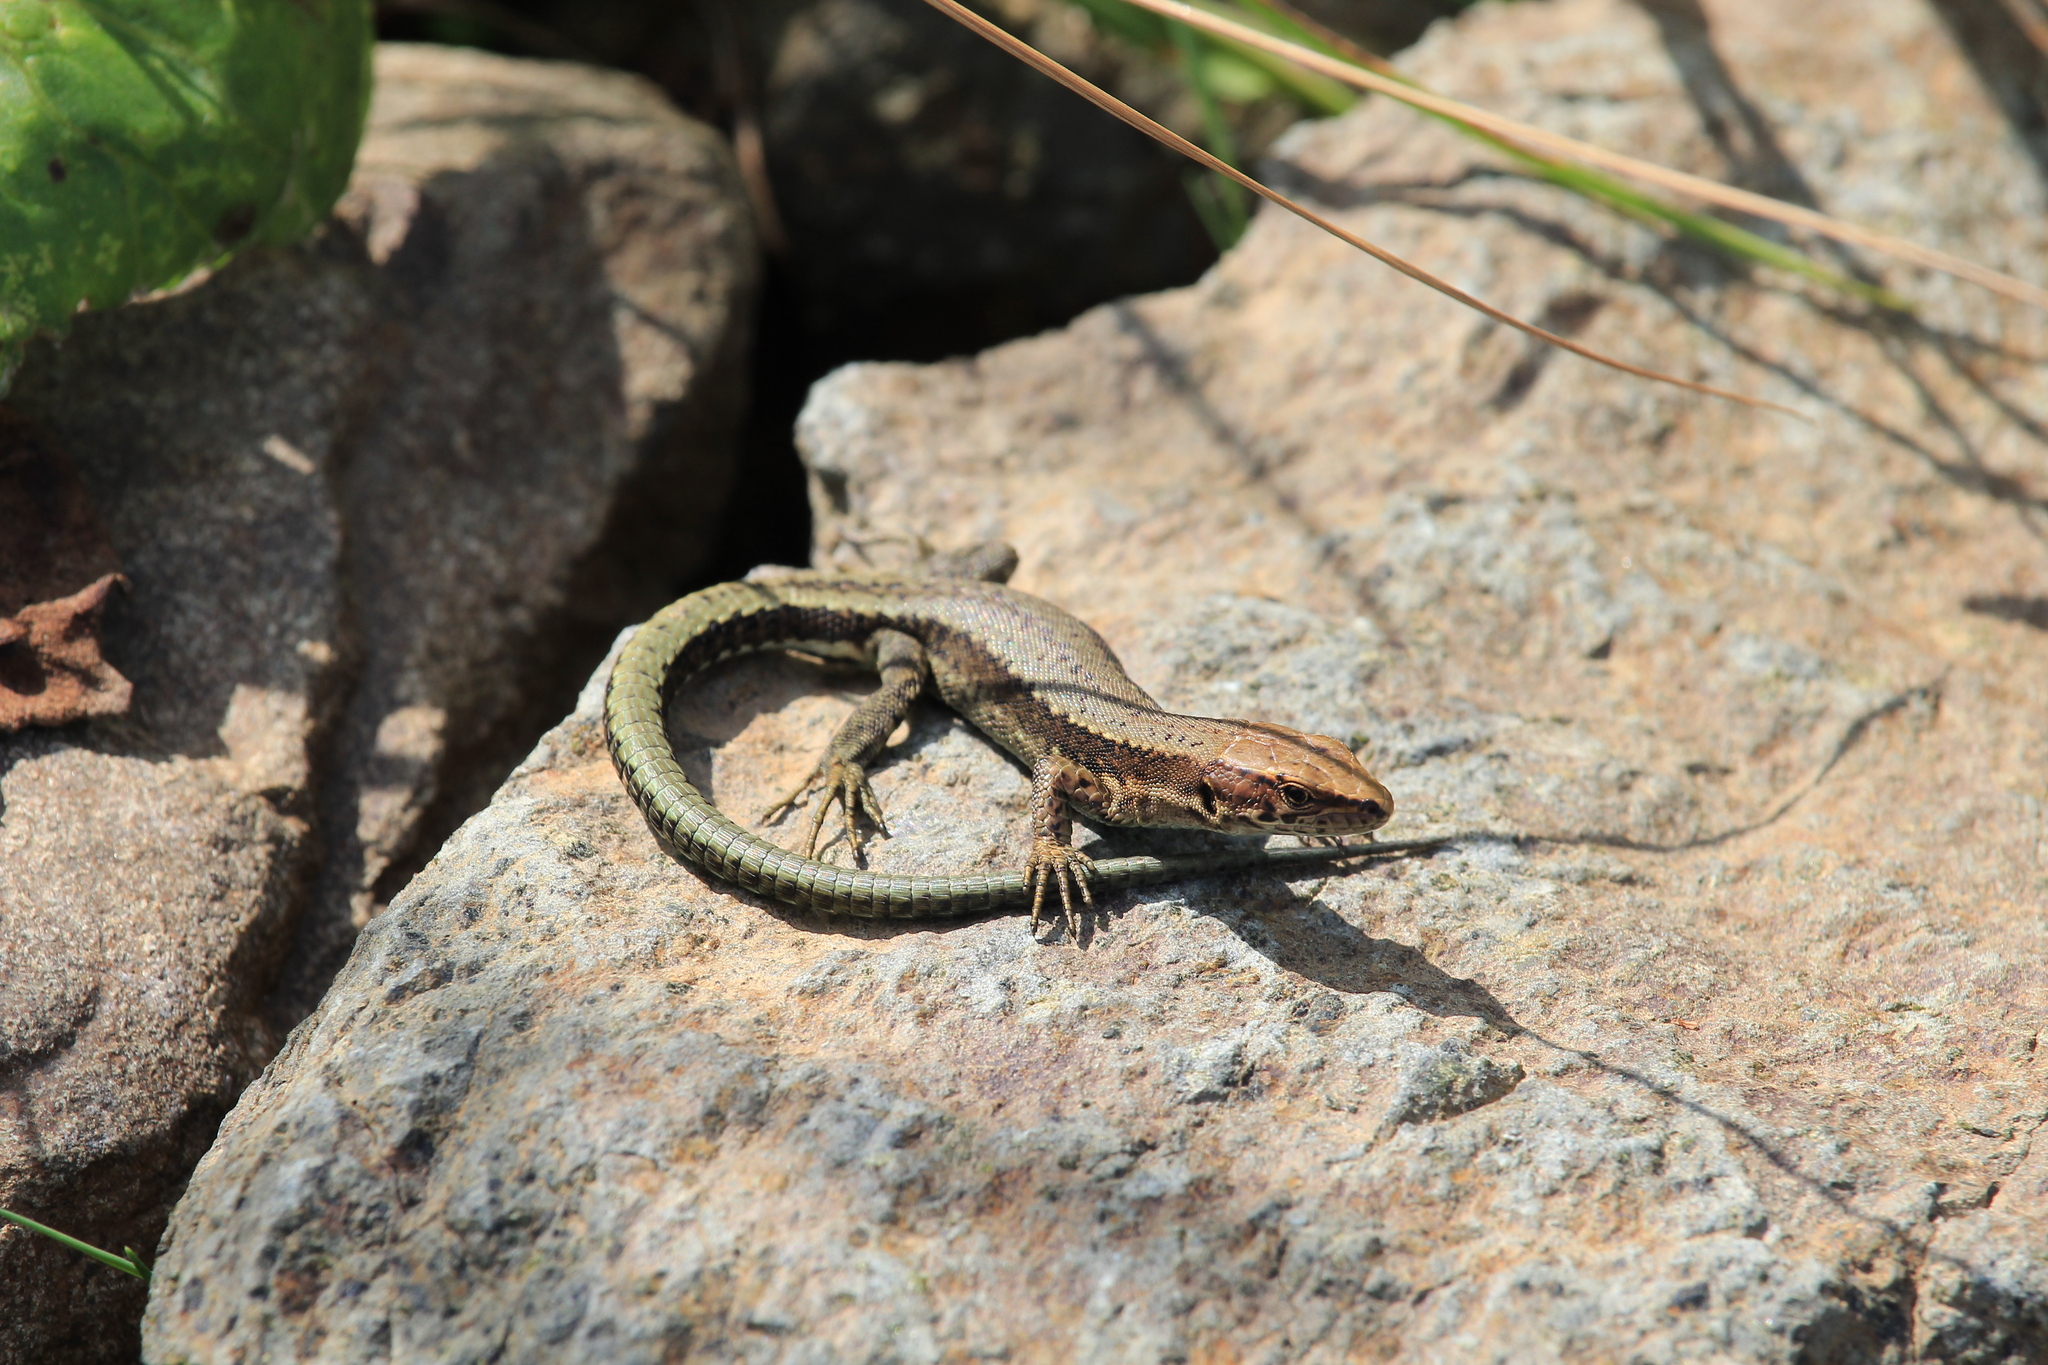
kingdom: Animalia
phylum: Chordata
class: Squamata
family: Lacertidae
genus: Darevskia
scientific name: Darevskia derjugini
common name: Derjugin's lizard
